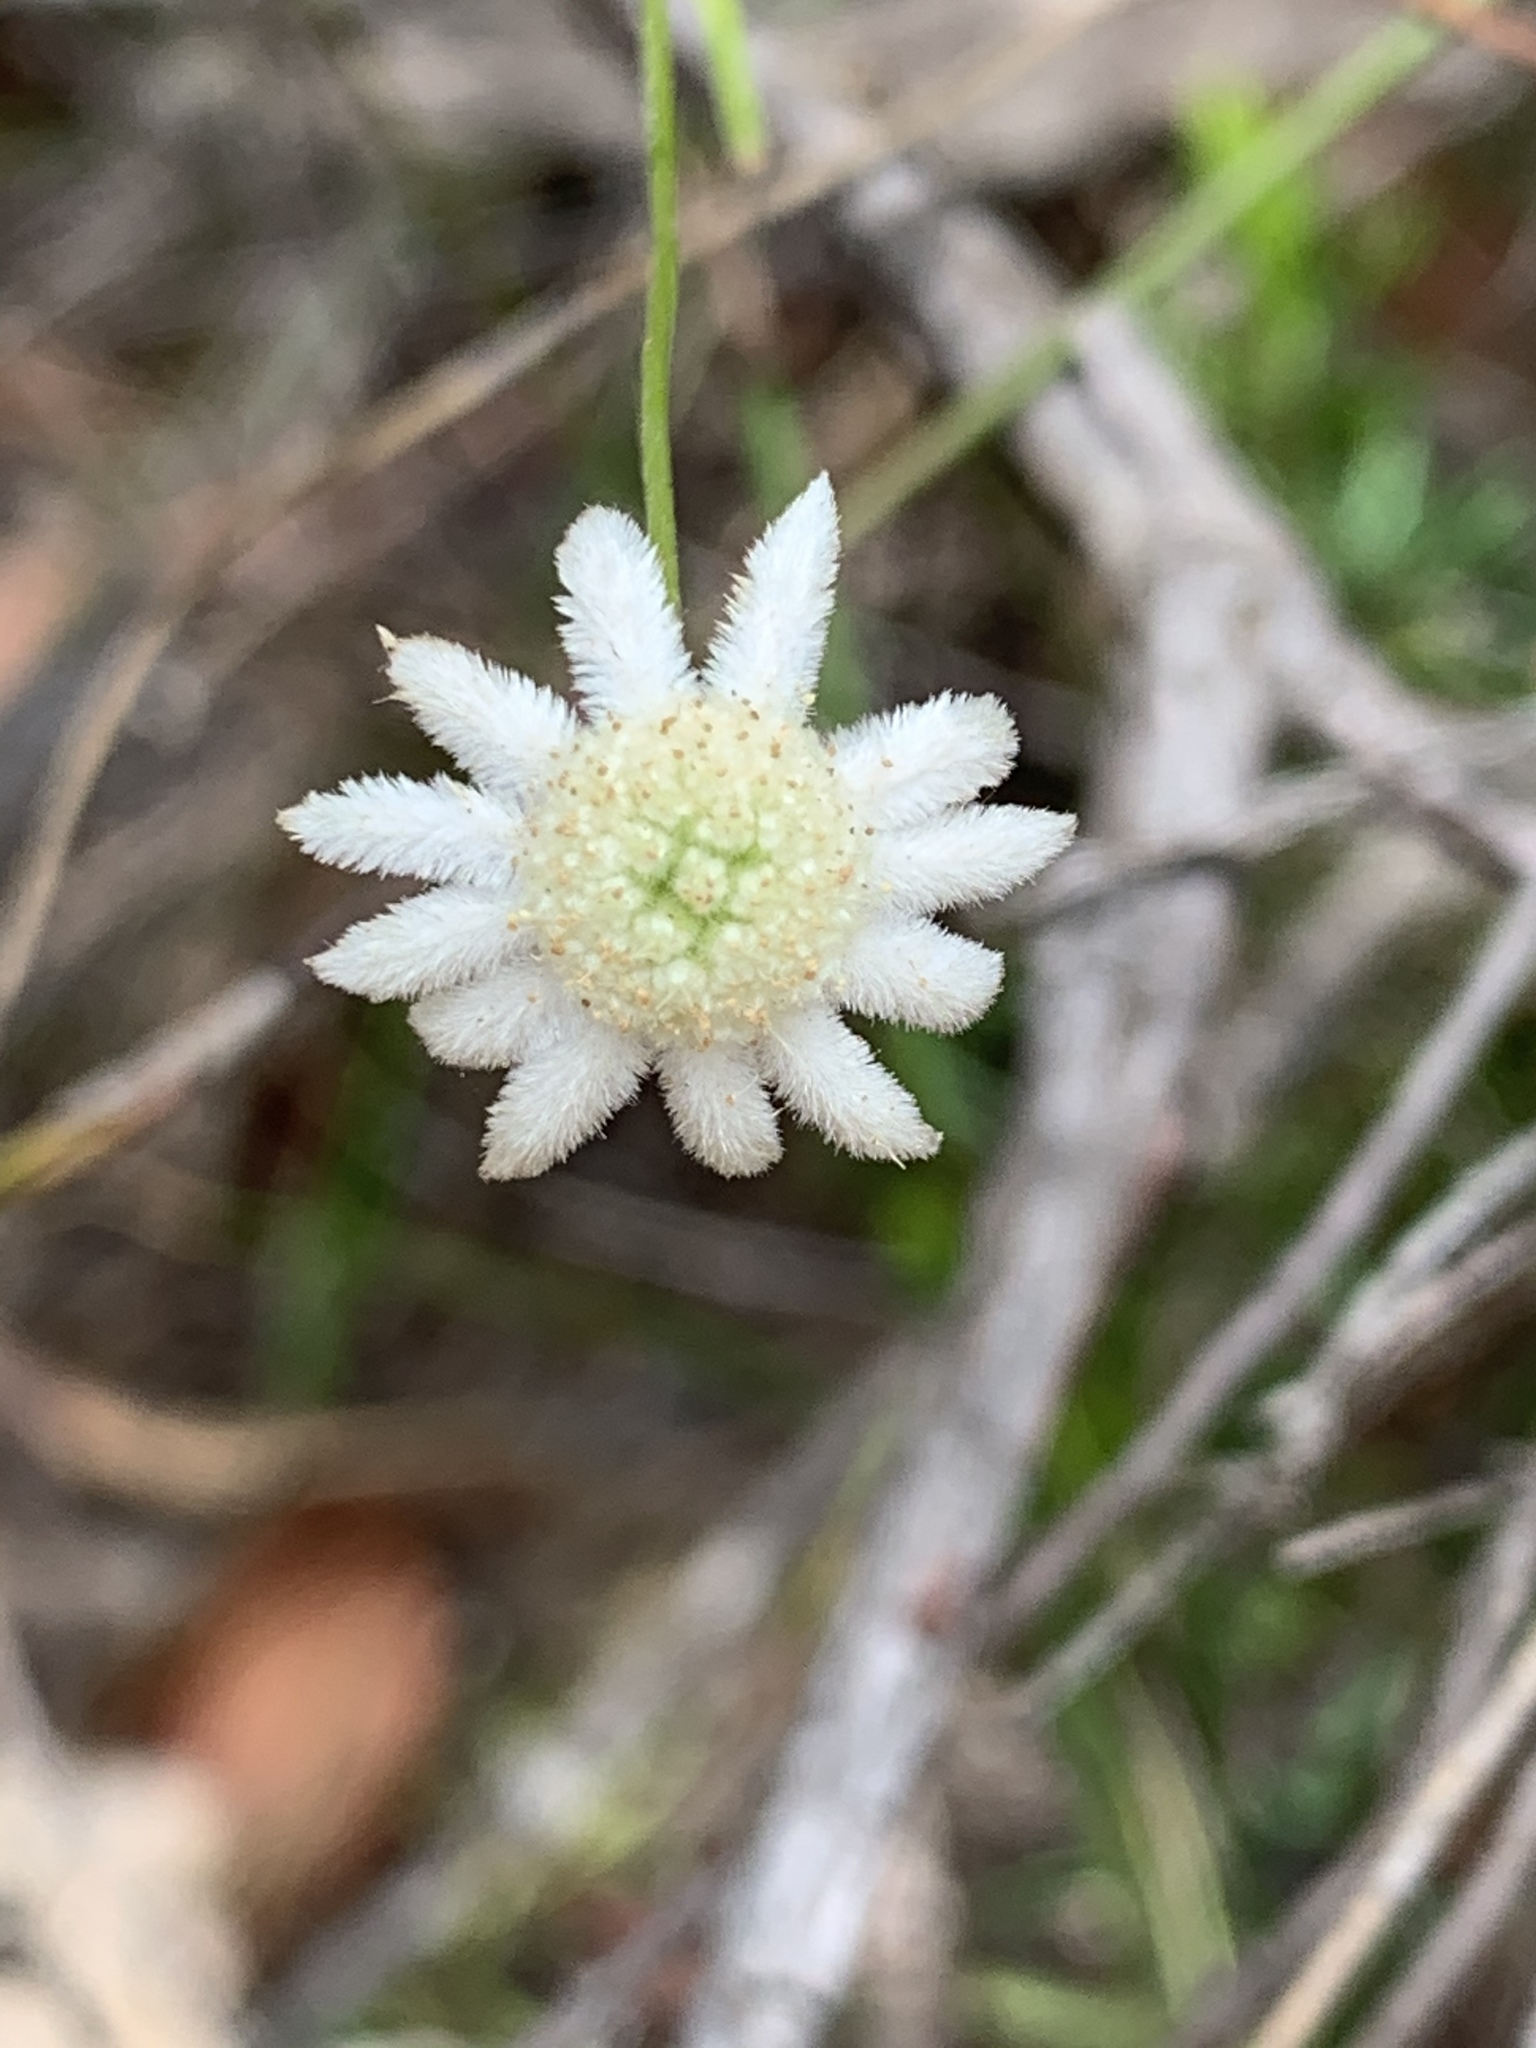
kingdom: Plantae
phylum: Tracheophyta
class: Magnoliopsida
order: Apiales
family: Apiaceae
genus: Actinotus
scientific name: Actinotus minor
